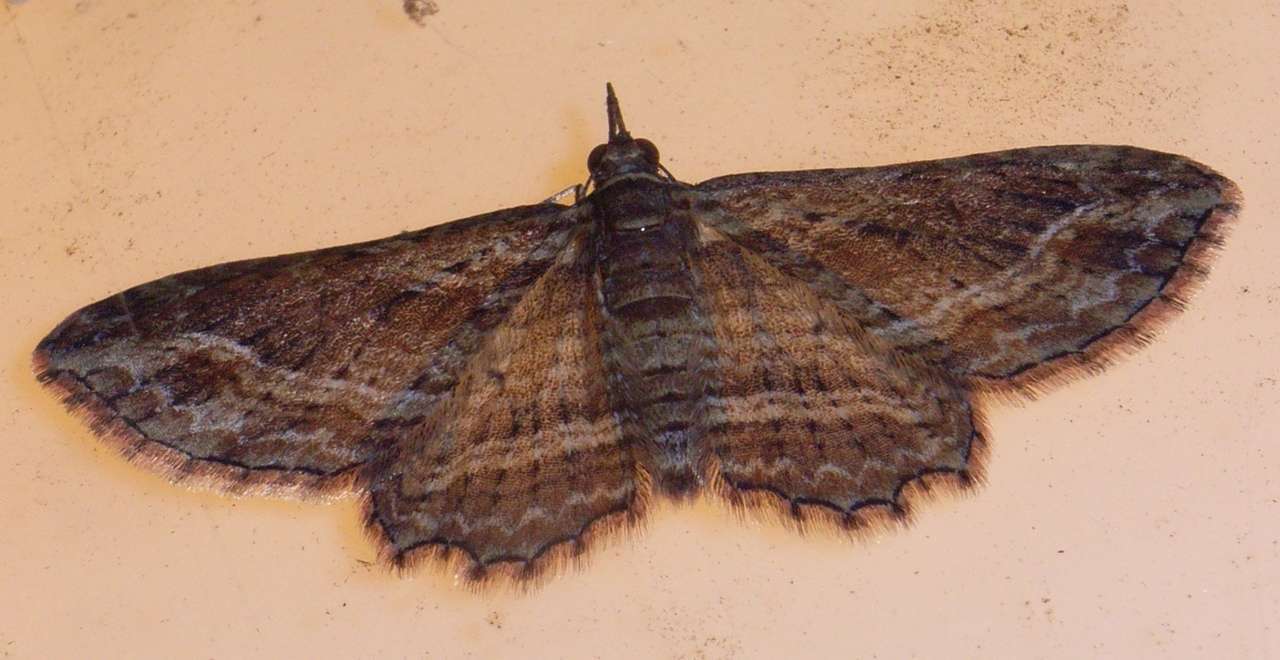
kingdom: Animalia
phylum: Arthropoda
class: Insecta
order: Lepidoptera
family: Geometridae
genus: Chloroclystis
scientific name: Chloroclystis filata
